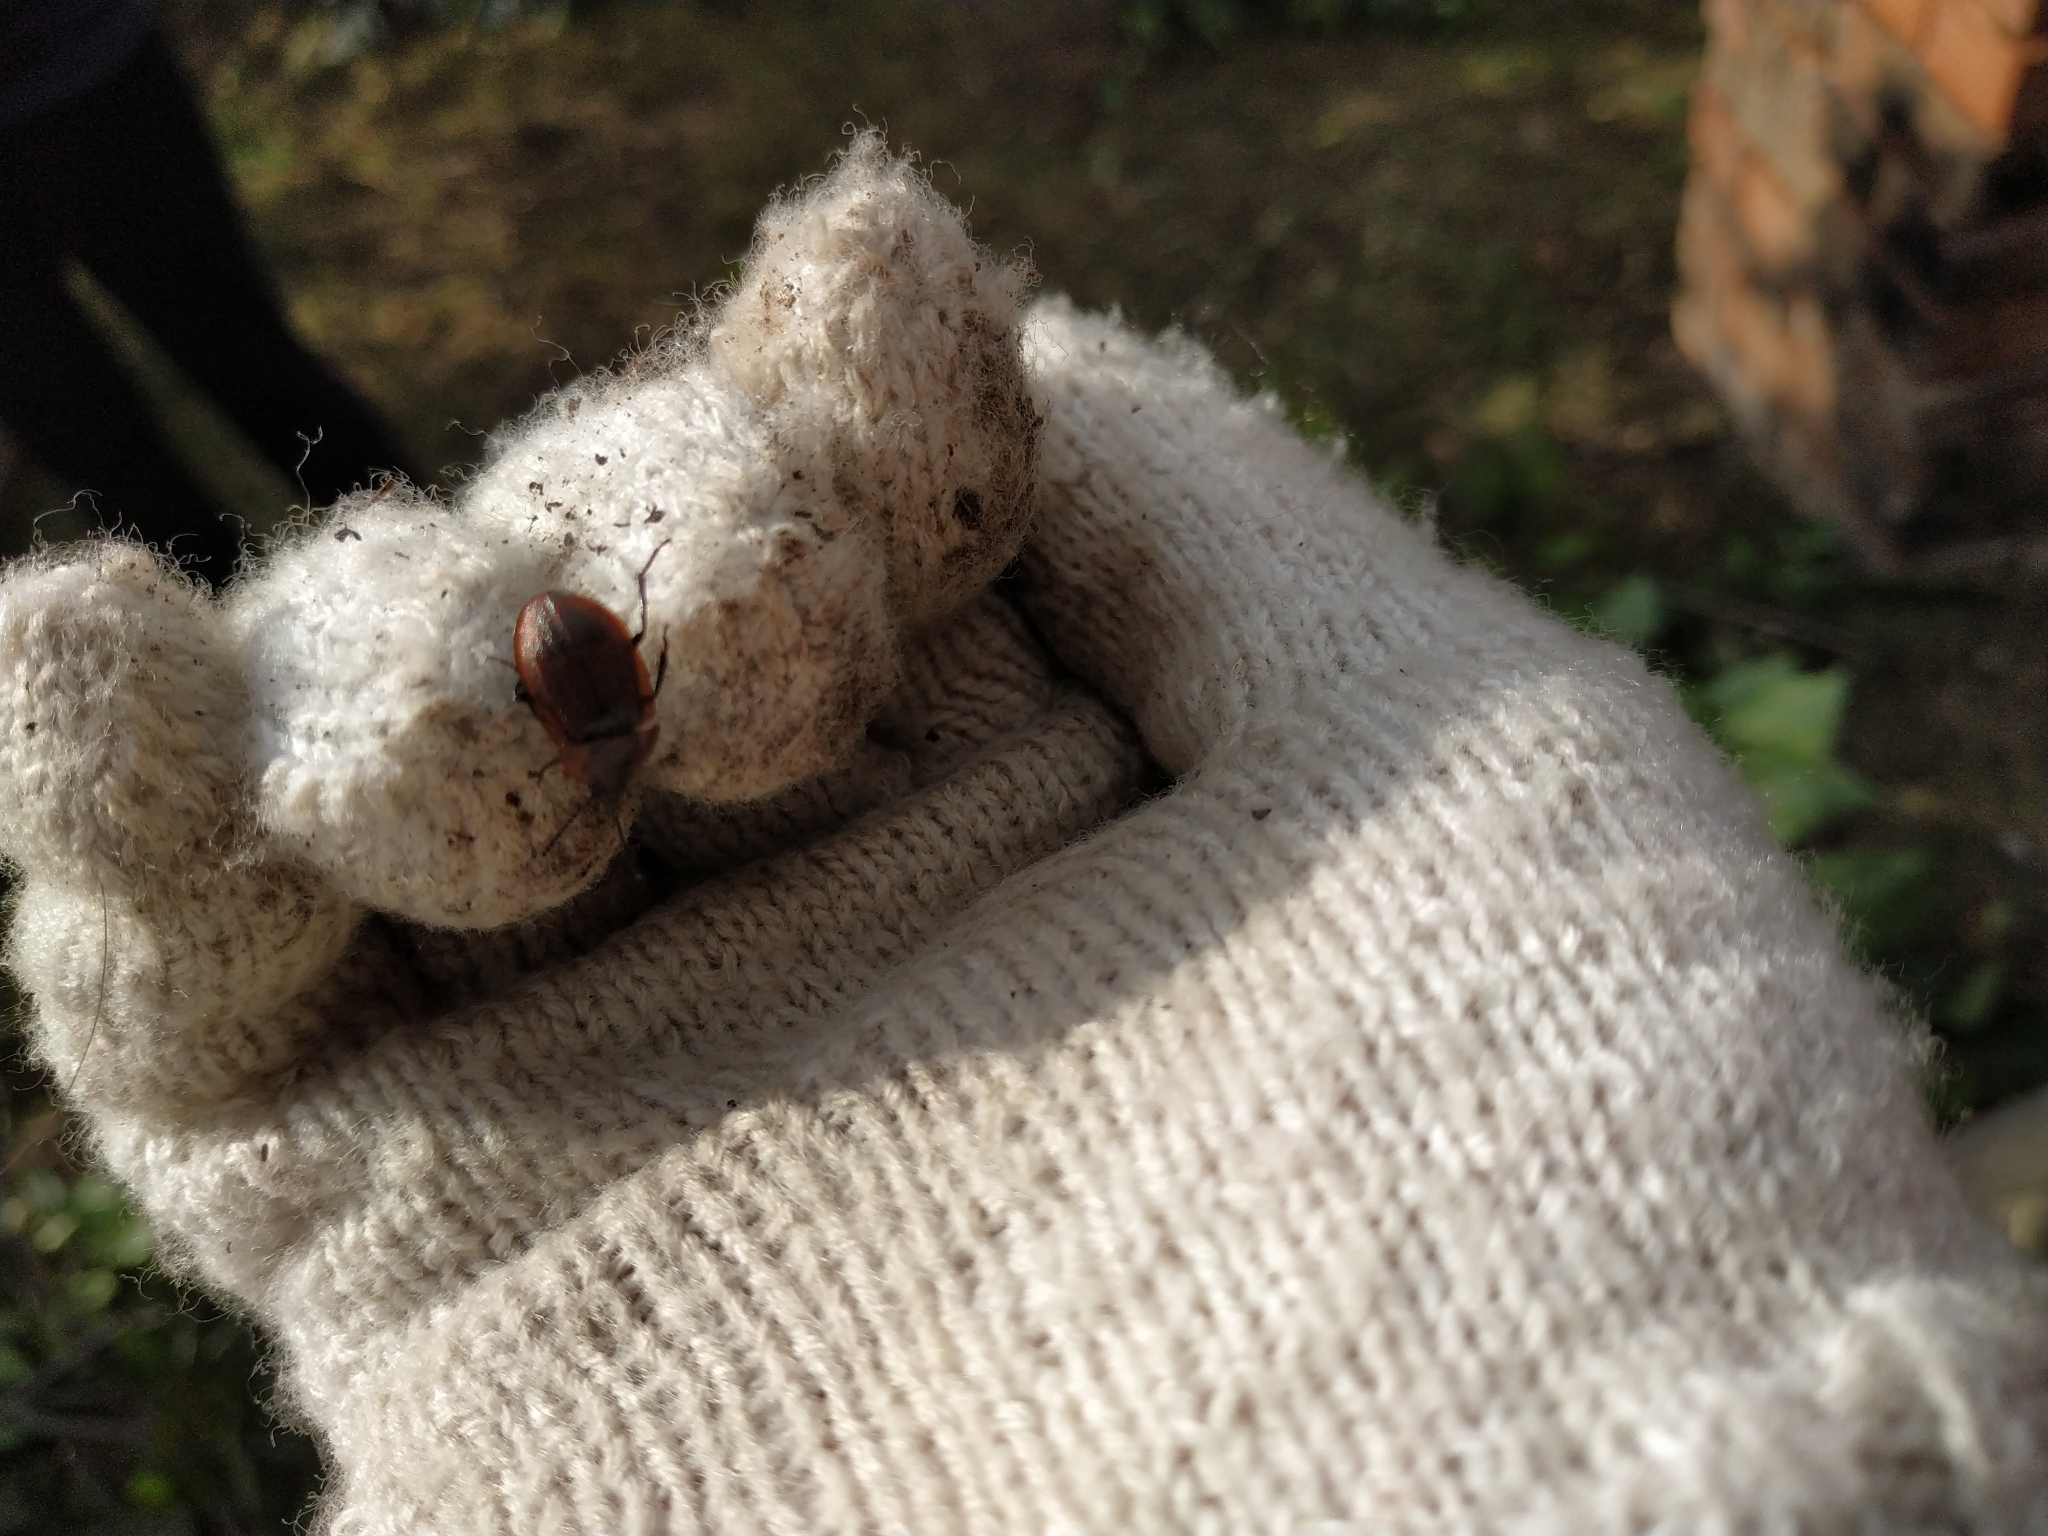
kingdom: Animalia
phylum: Arthropoda
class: Insecta
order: Coleoptera
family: Staphylinidae
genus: Silpha
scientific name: Silpha atrata
